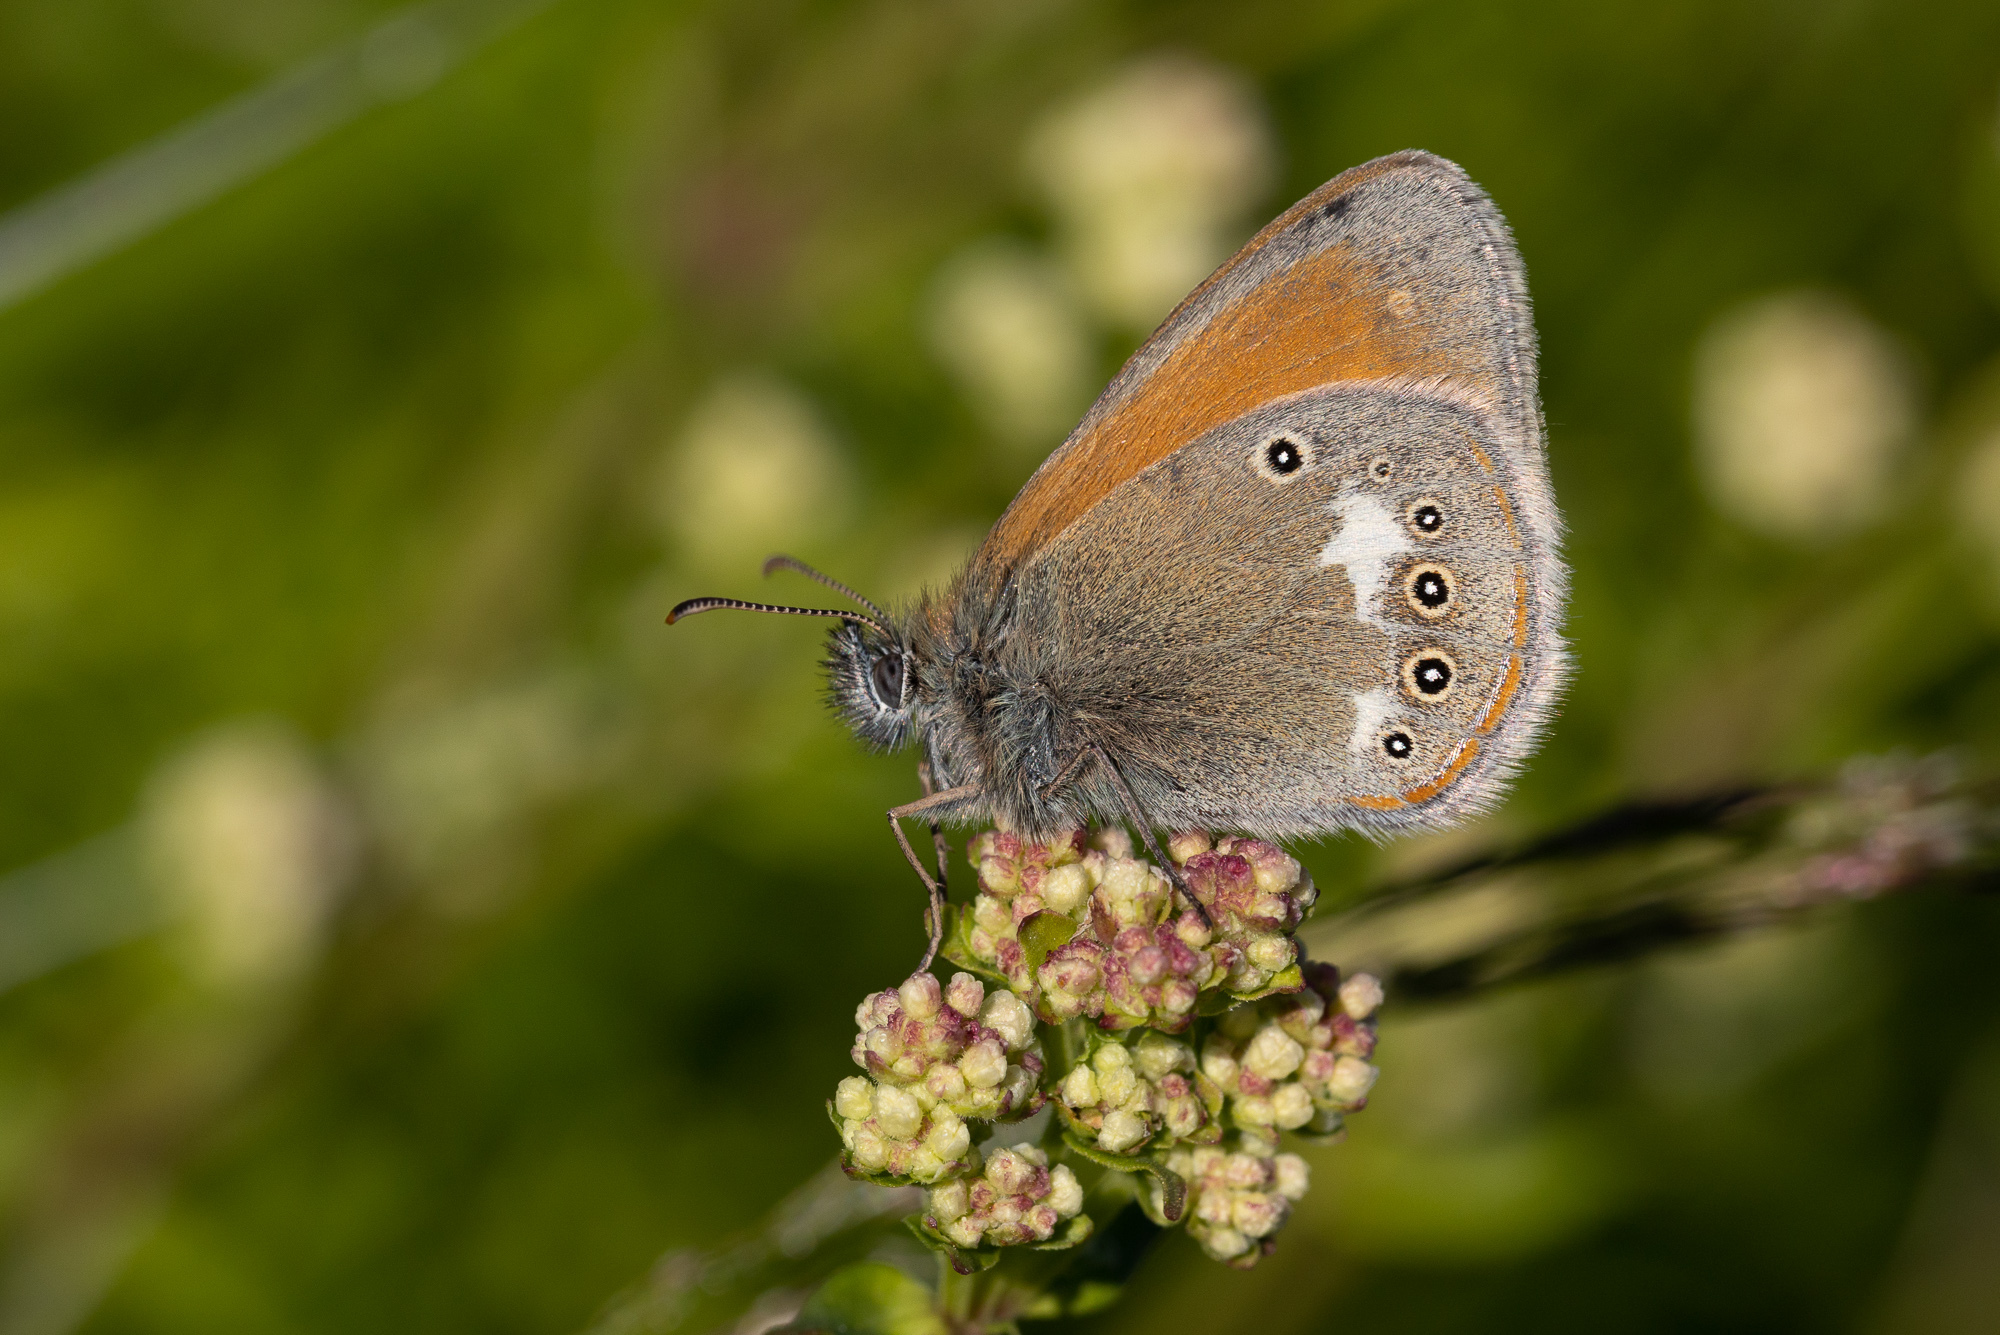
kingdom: Animalia
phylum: Arthropoda
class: Insecta
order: Lepidoptera
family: Nymphalidae
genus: Coenonympha
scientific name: Coenonympha iphis
